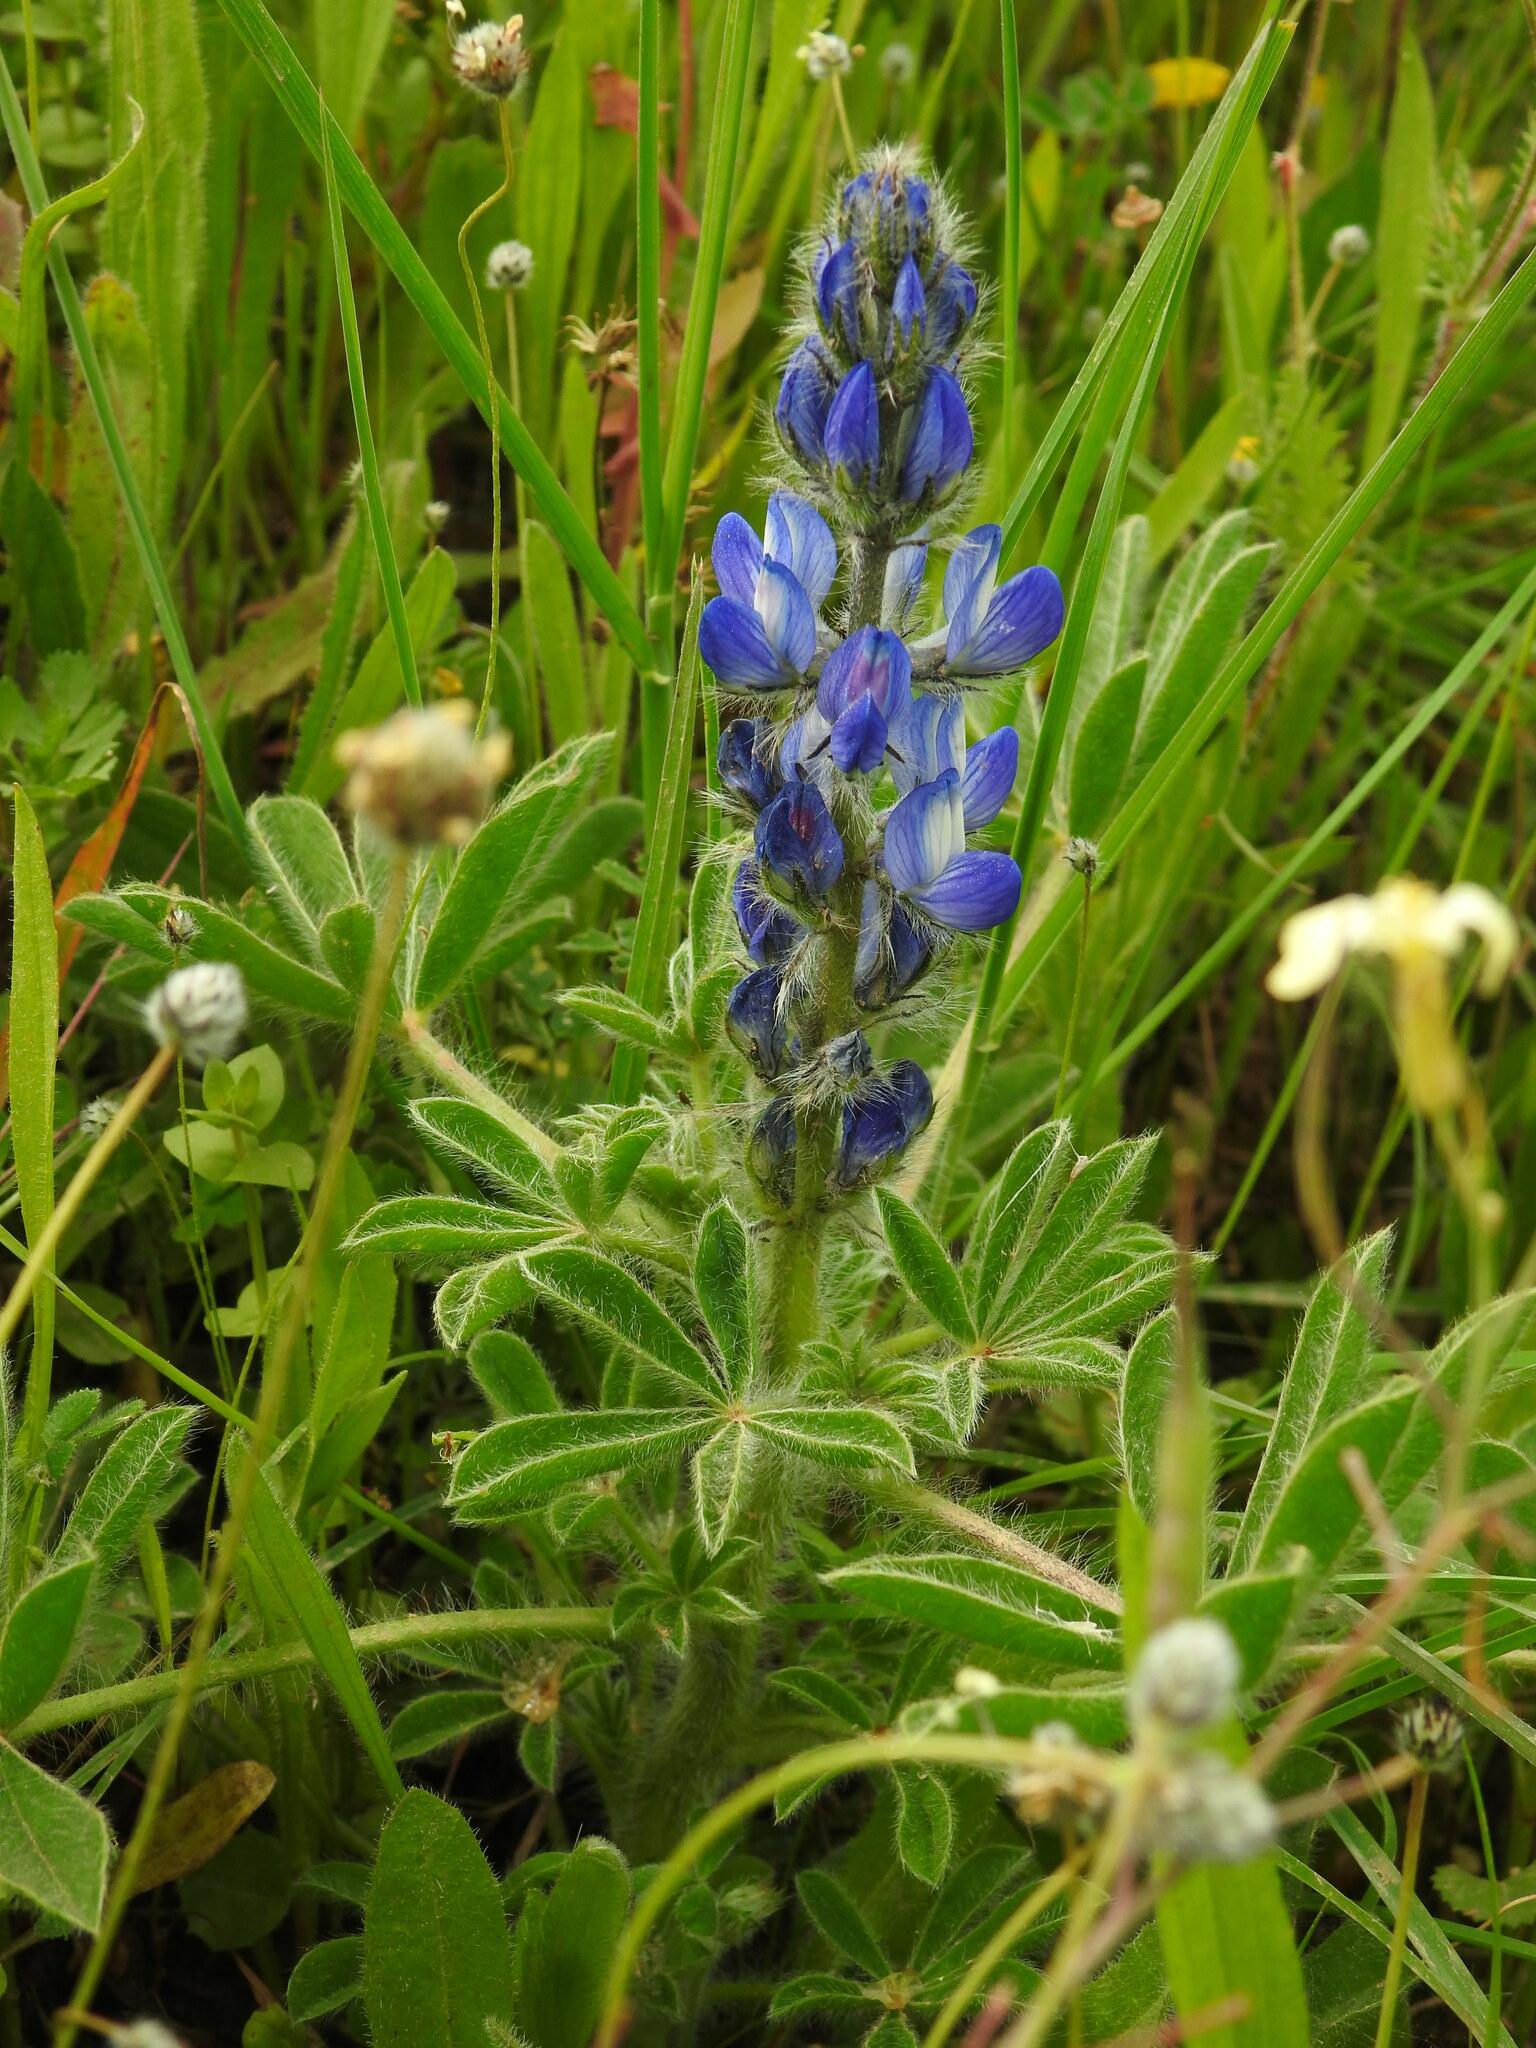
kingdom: Plantae
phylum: Tracheophyta
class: Magnoliopsida
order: Fabales
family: Fabaceae
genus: Lupinus
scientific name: Lupinus gussoneanus
